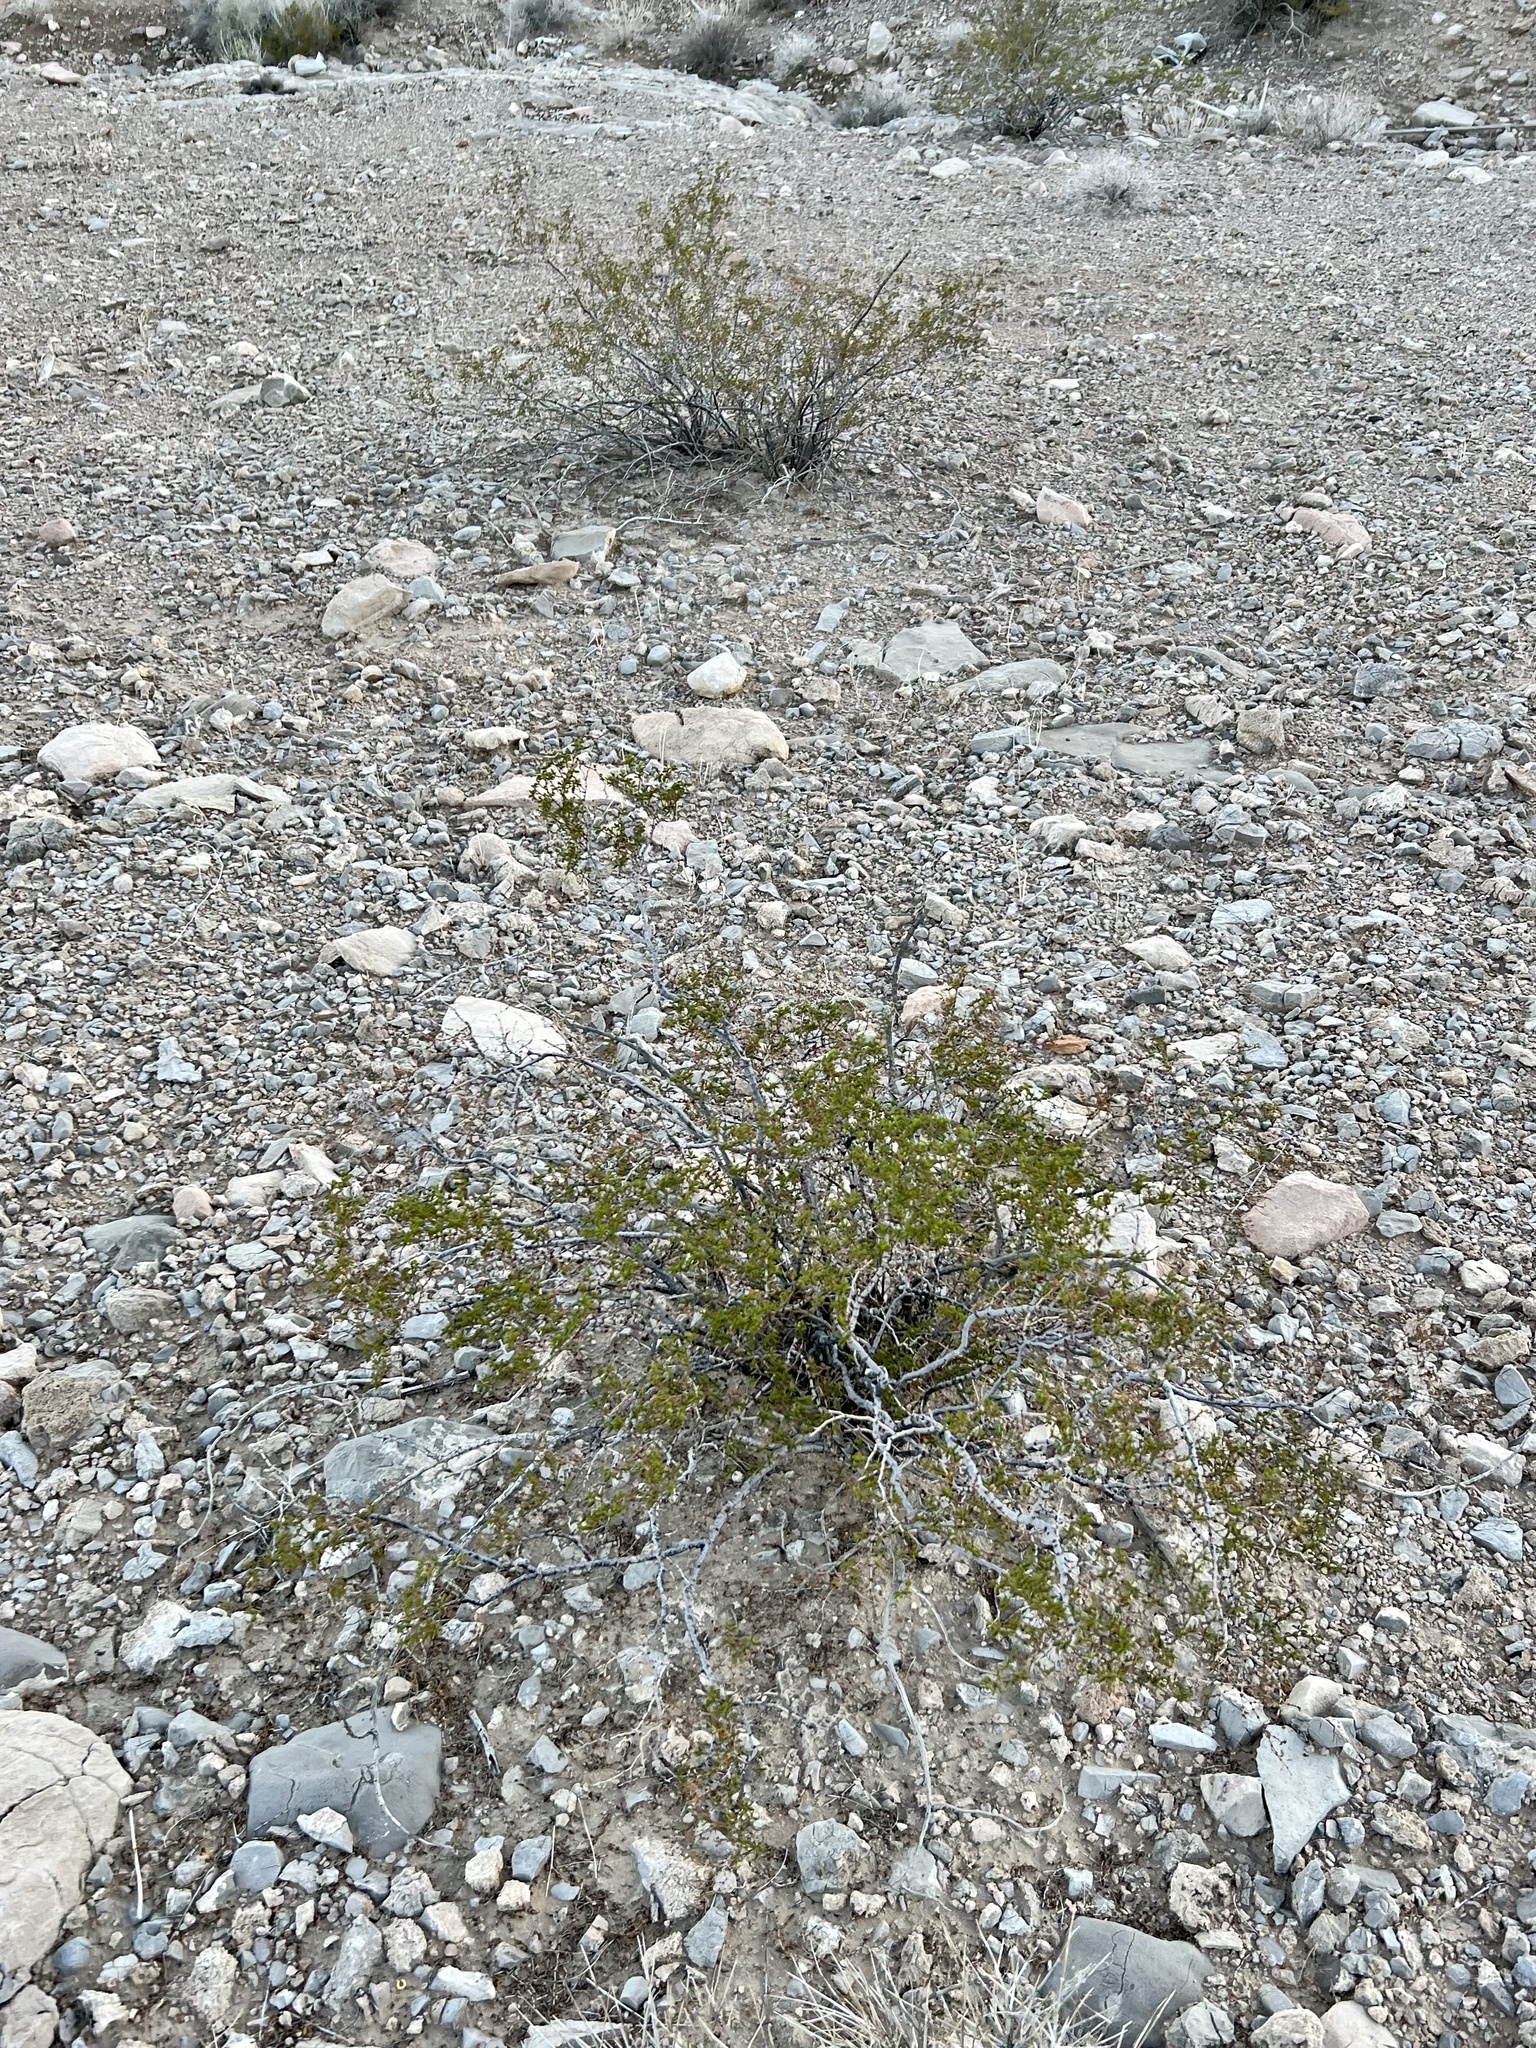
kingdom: Plantae
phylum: Tracheophyta
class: Magnoliopsida
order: Zygophyllales
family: Zygophyllaceae
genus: Larrea
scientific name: Larrea tridentata
